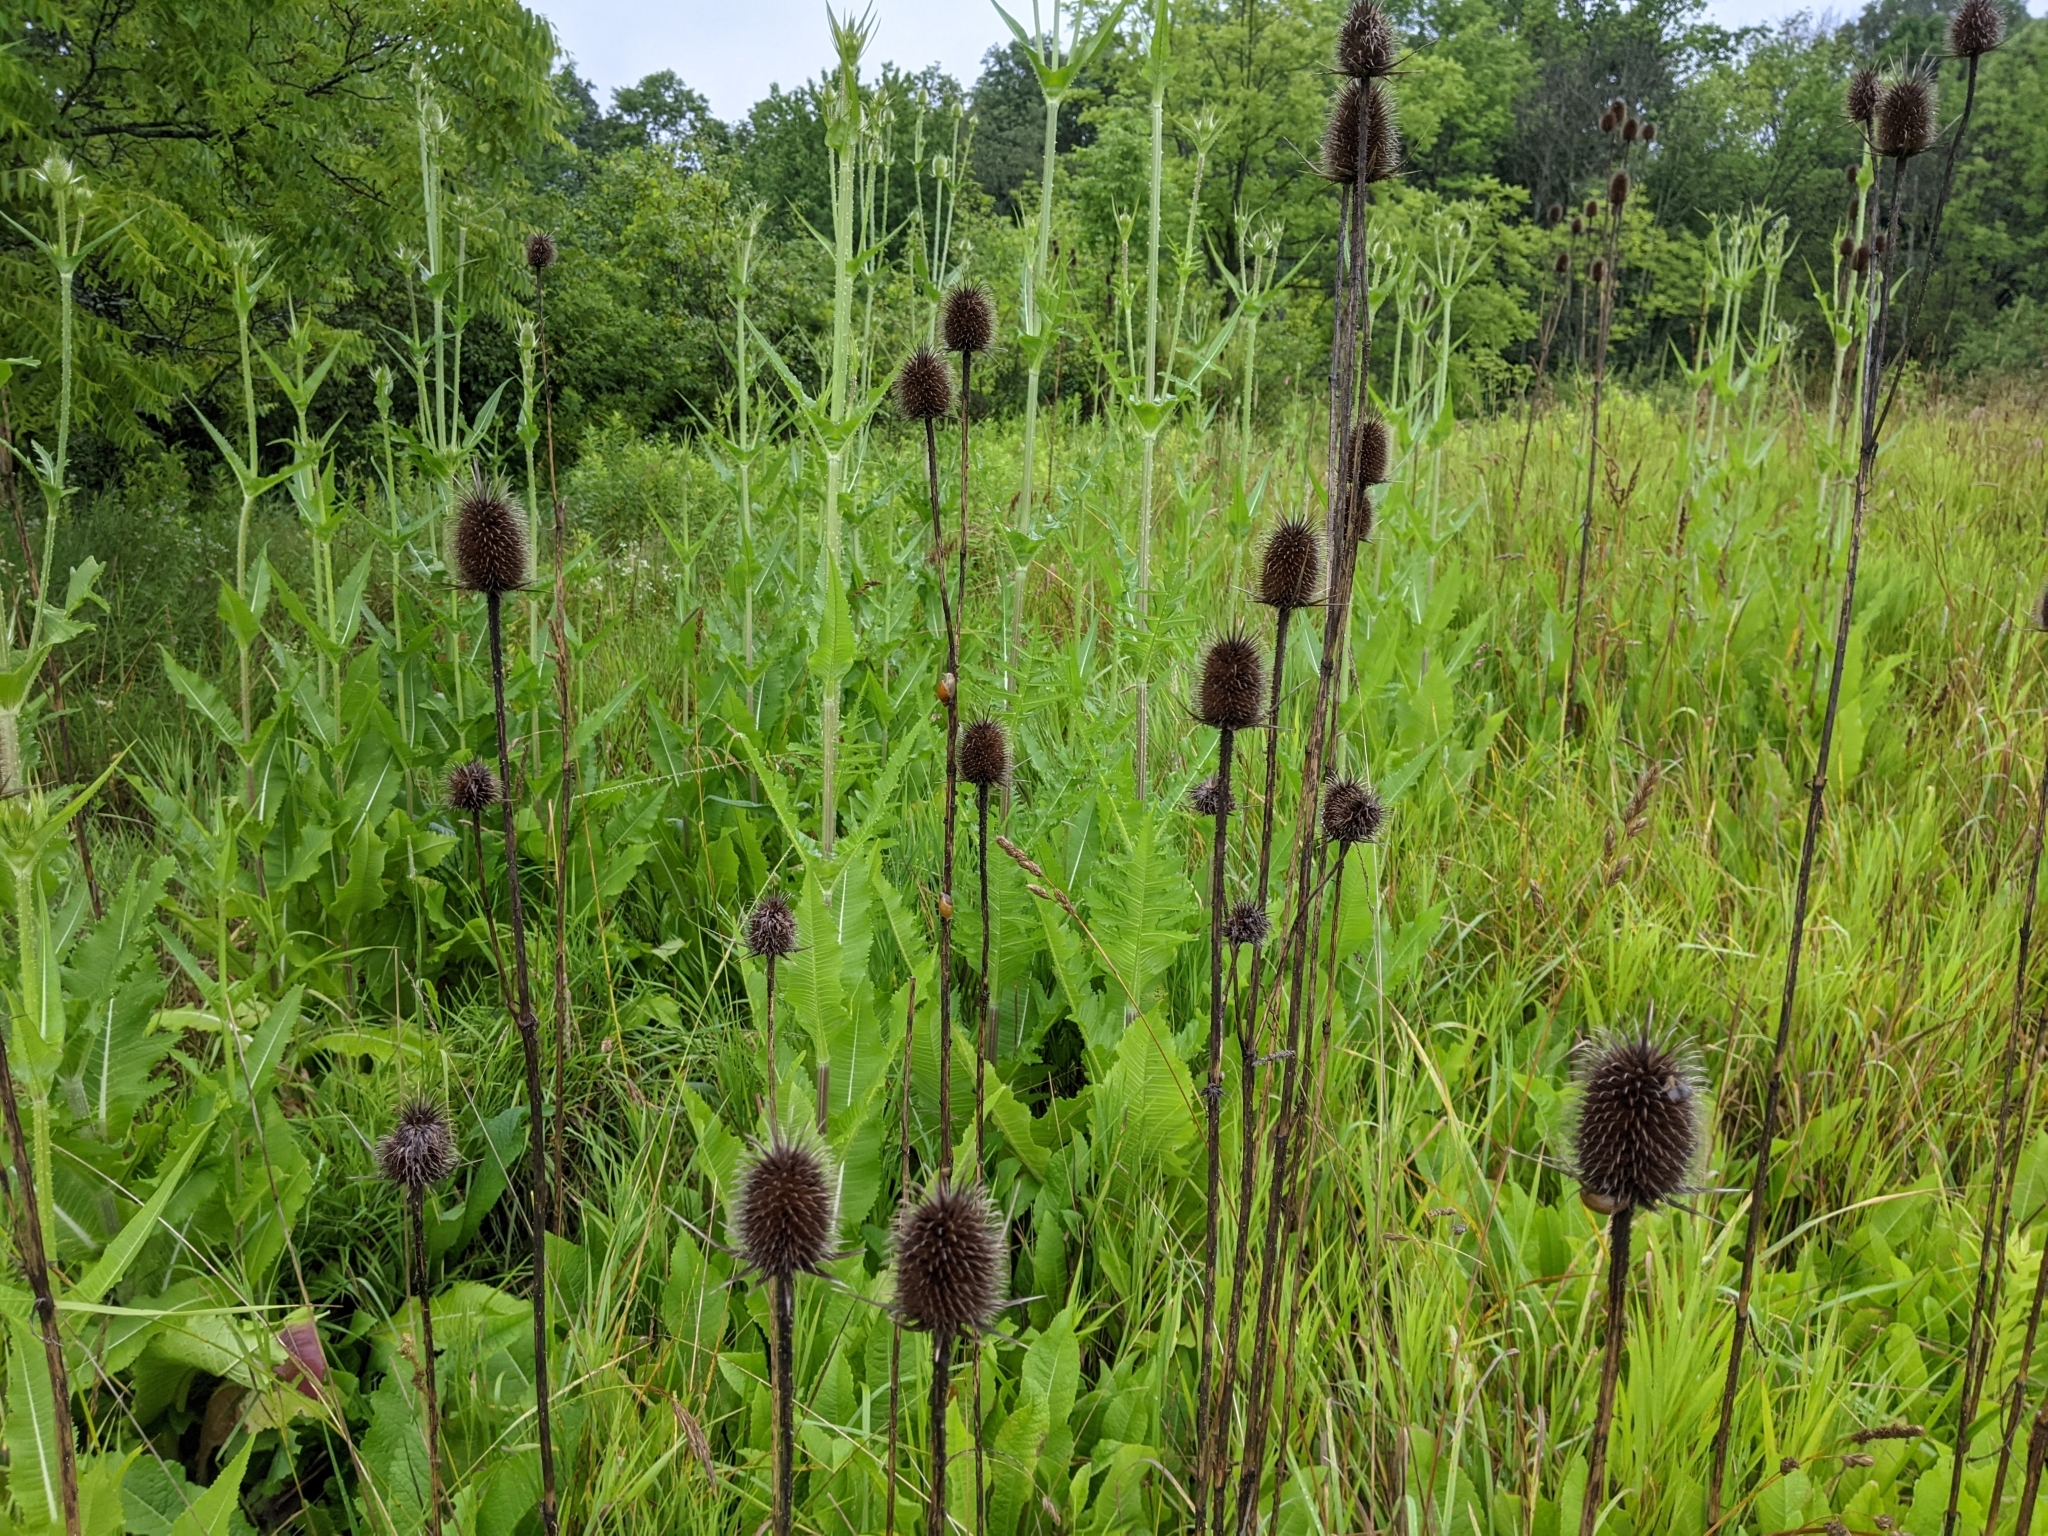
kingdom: Plantae
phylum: Tracheophyta
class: Magnoliopsida
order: Dipsacales
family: Caprifoliaceae
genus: Dipsacus
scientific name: Dipsacus laciniatus
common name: Cut-leaved teasel
